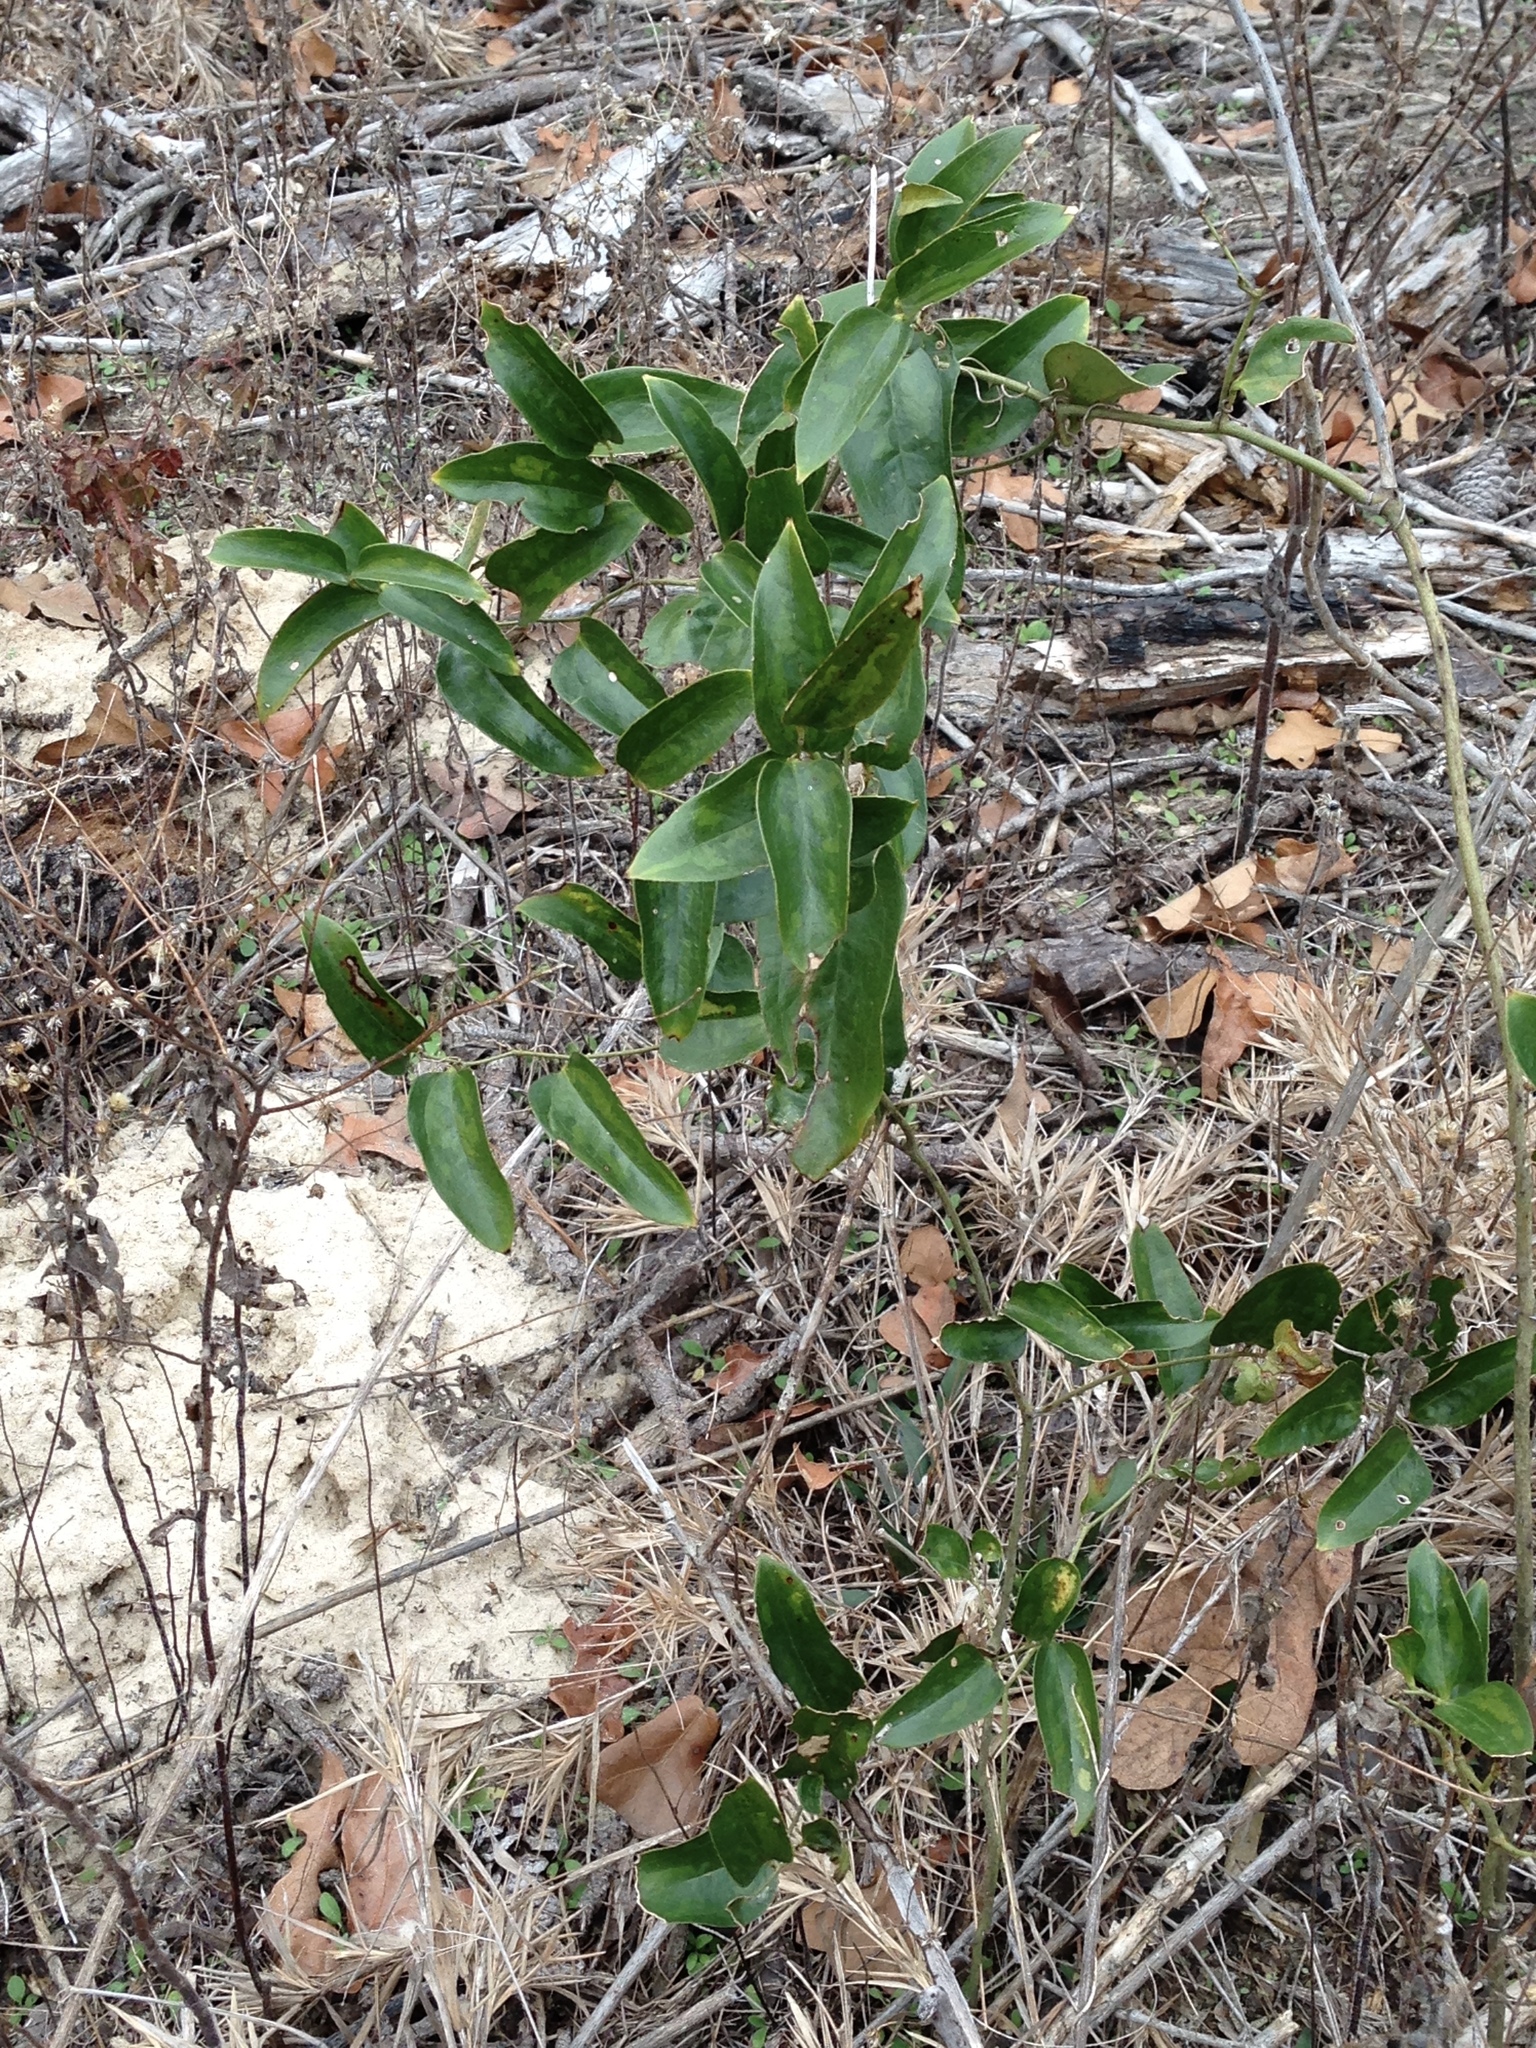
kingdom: Plantae
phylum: Tracheophyta
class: Liliopsida
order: Liliales
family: Smilacaceae
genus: Smilax
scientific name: Smilax maritima
